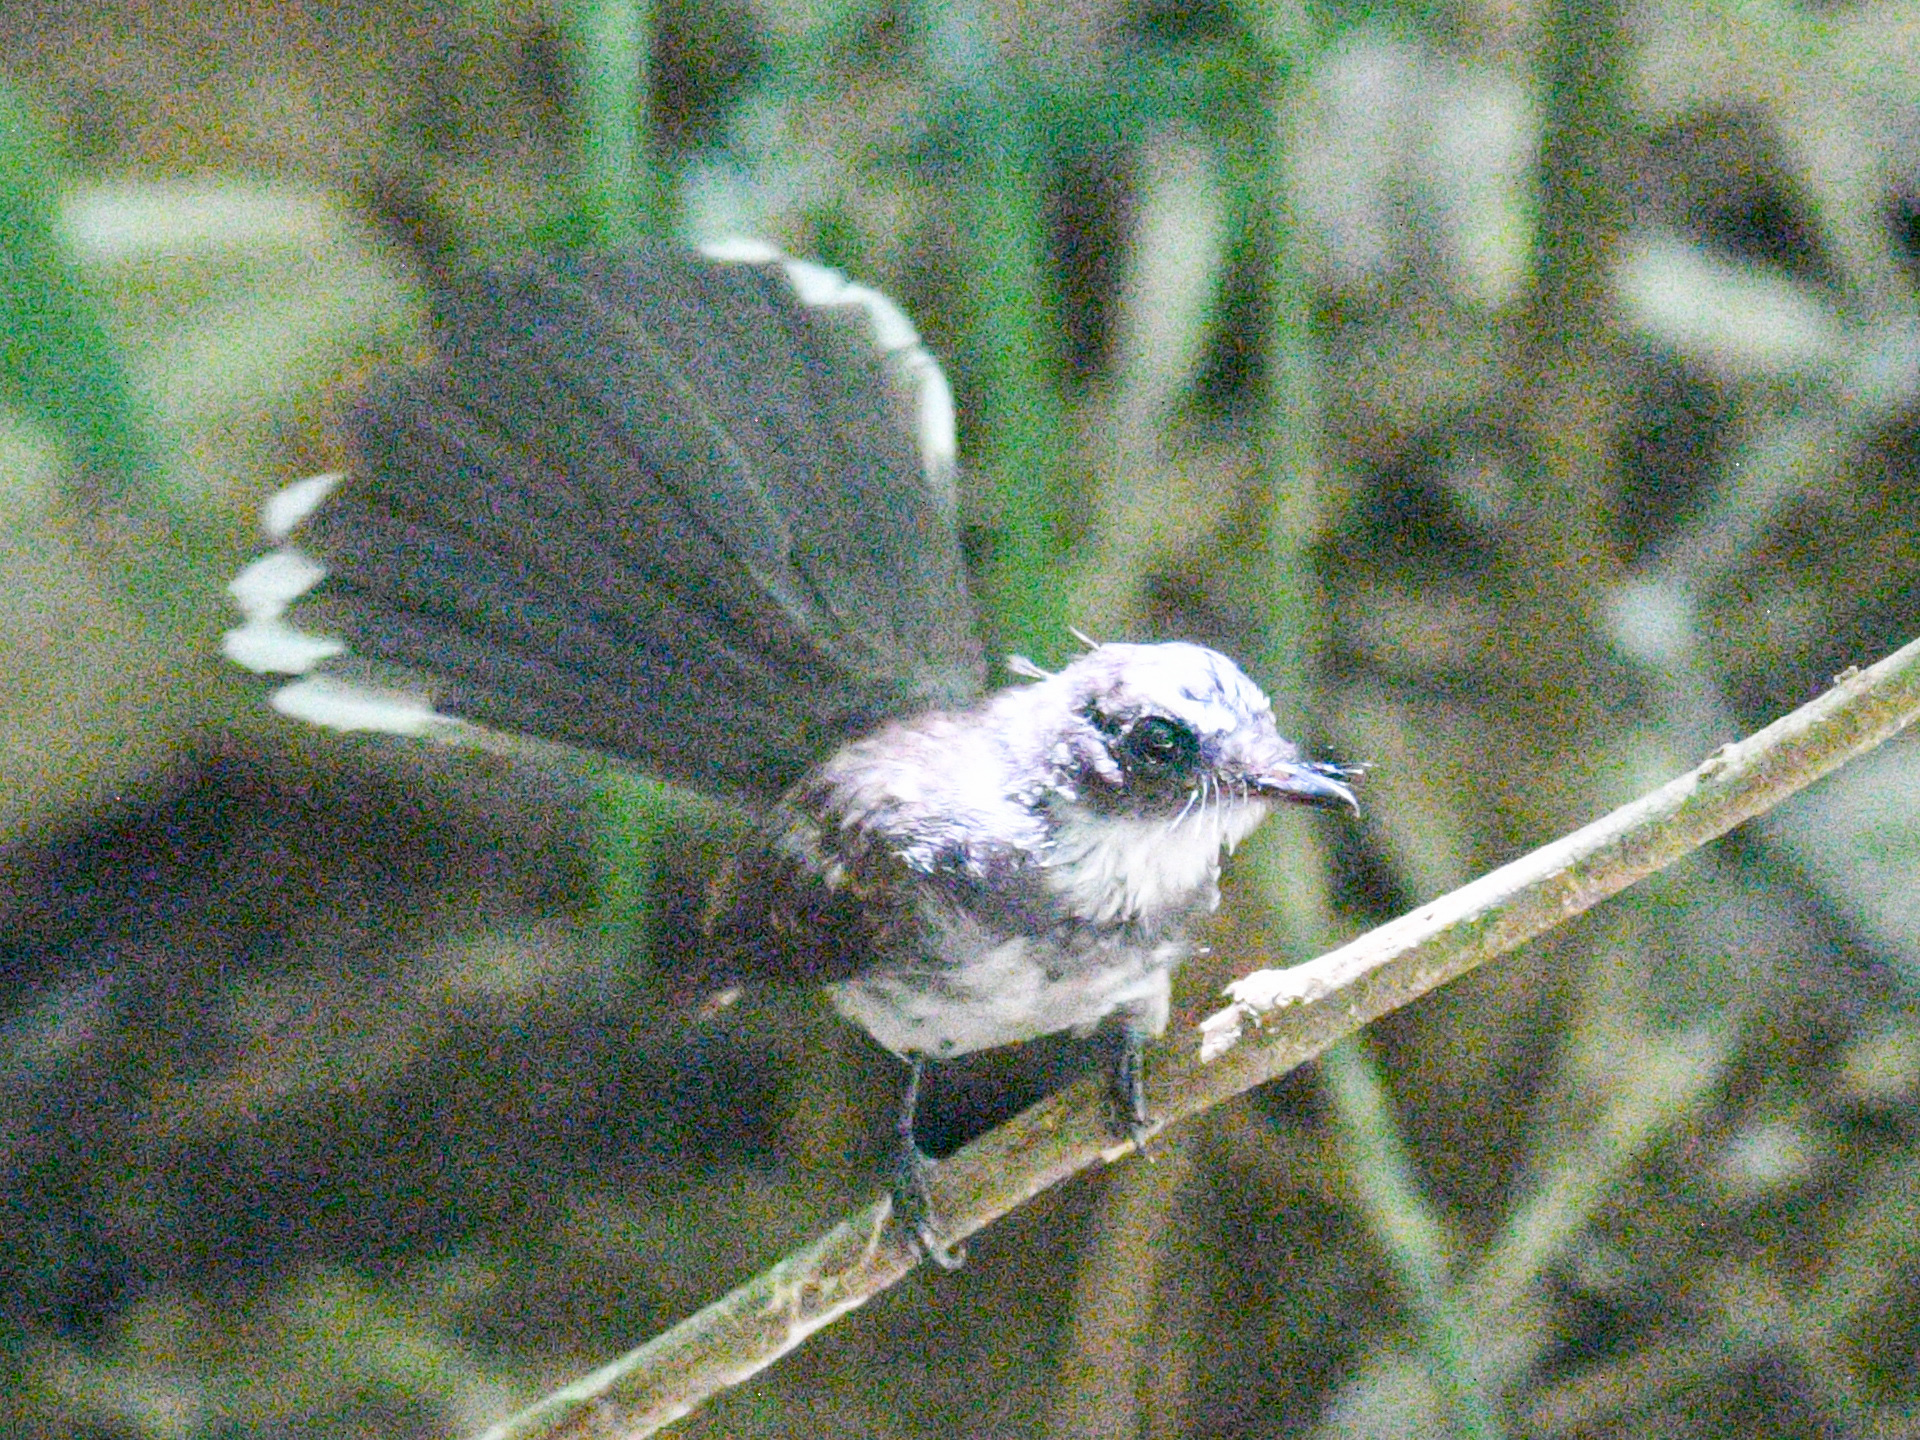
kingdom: Animalia
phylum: Chordata
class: Aves
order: Passeriformes
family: Rhipiduridae
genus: Rhipidura
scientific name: Rhipidura javanica
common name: Pied fantail
